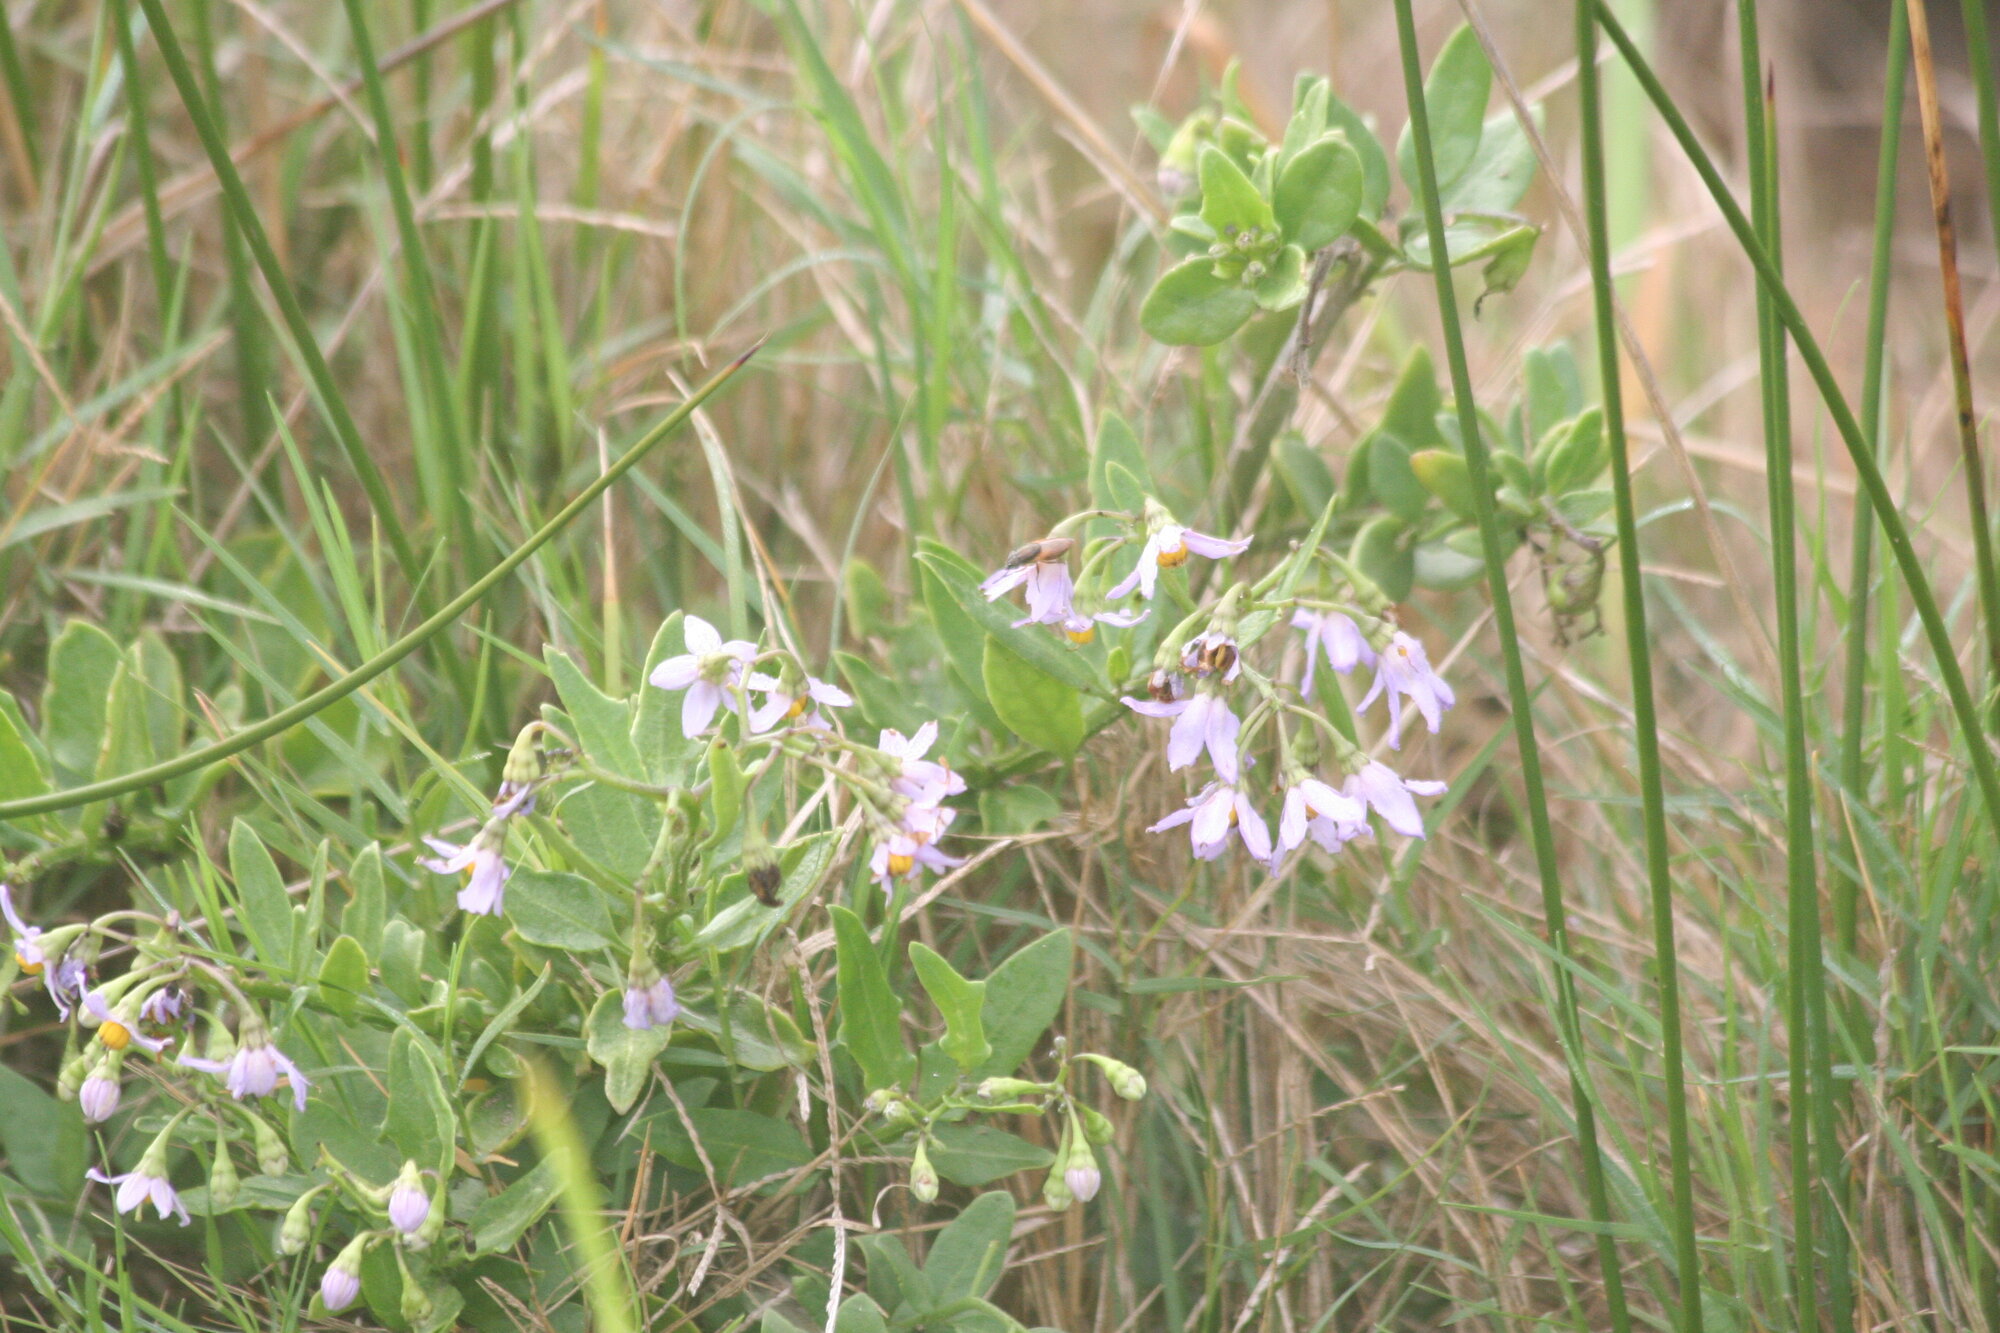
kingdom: Plantae
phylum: Tracheophyta
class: Magnoliopsida
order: Solanales
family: Solanaceae
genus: Solanum
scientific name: Solanum africanum
